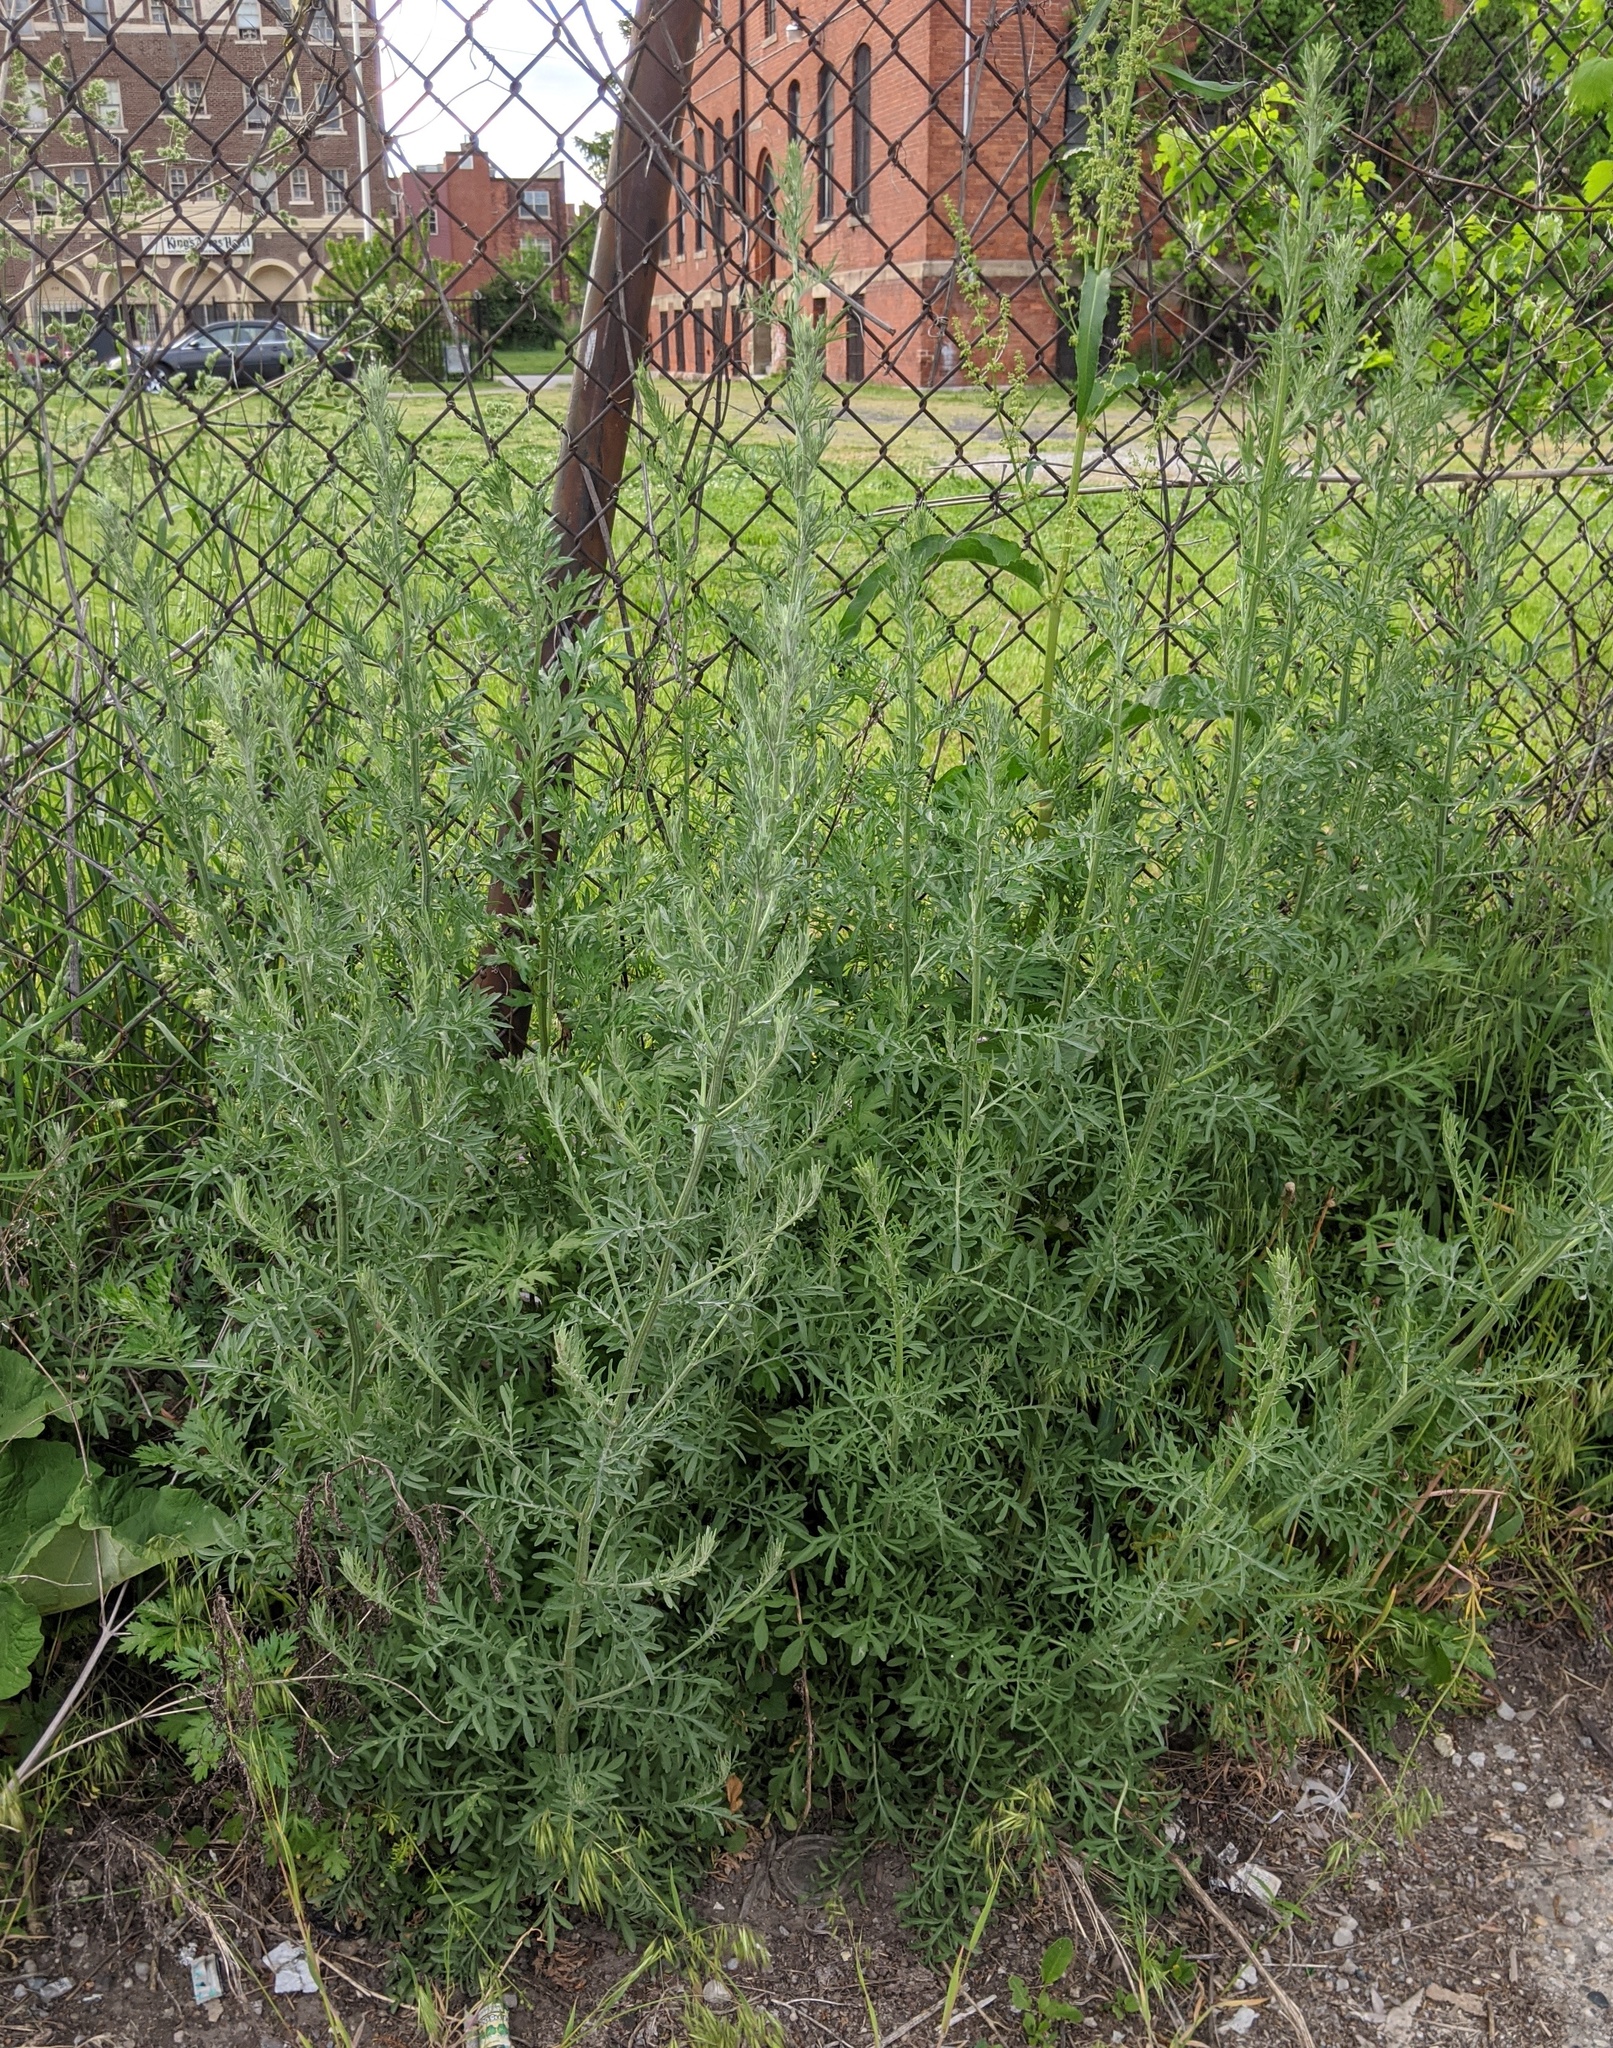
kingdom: Plantae
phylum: Tracheophyta
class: Magnoliopsida
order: Asterales
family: Asteraceae
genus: Centaurea
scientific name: Centaurea stoebe
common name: Spotted knapweed
